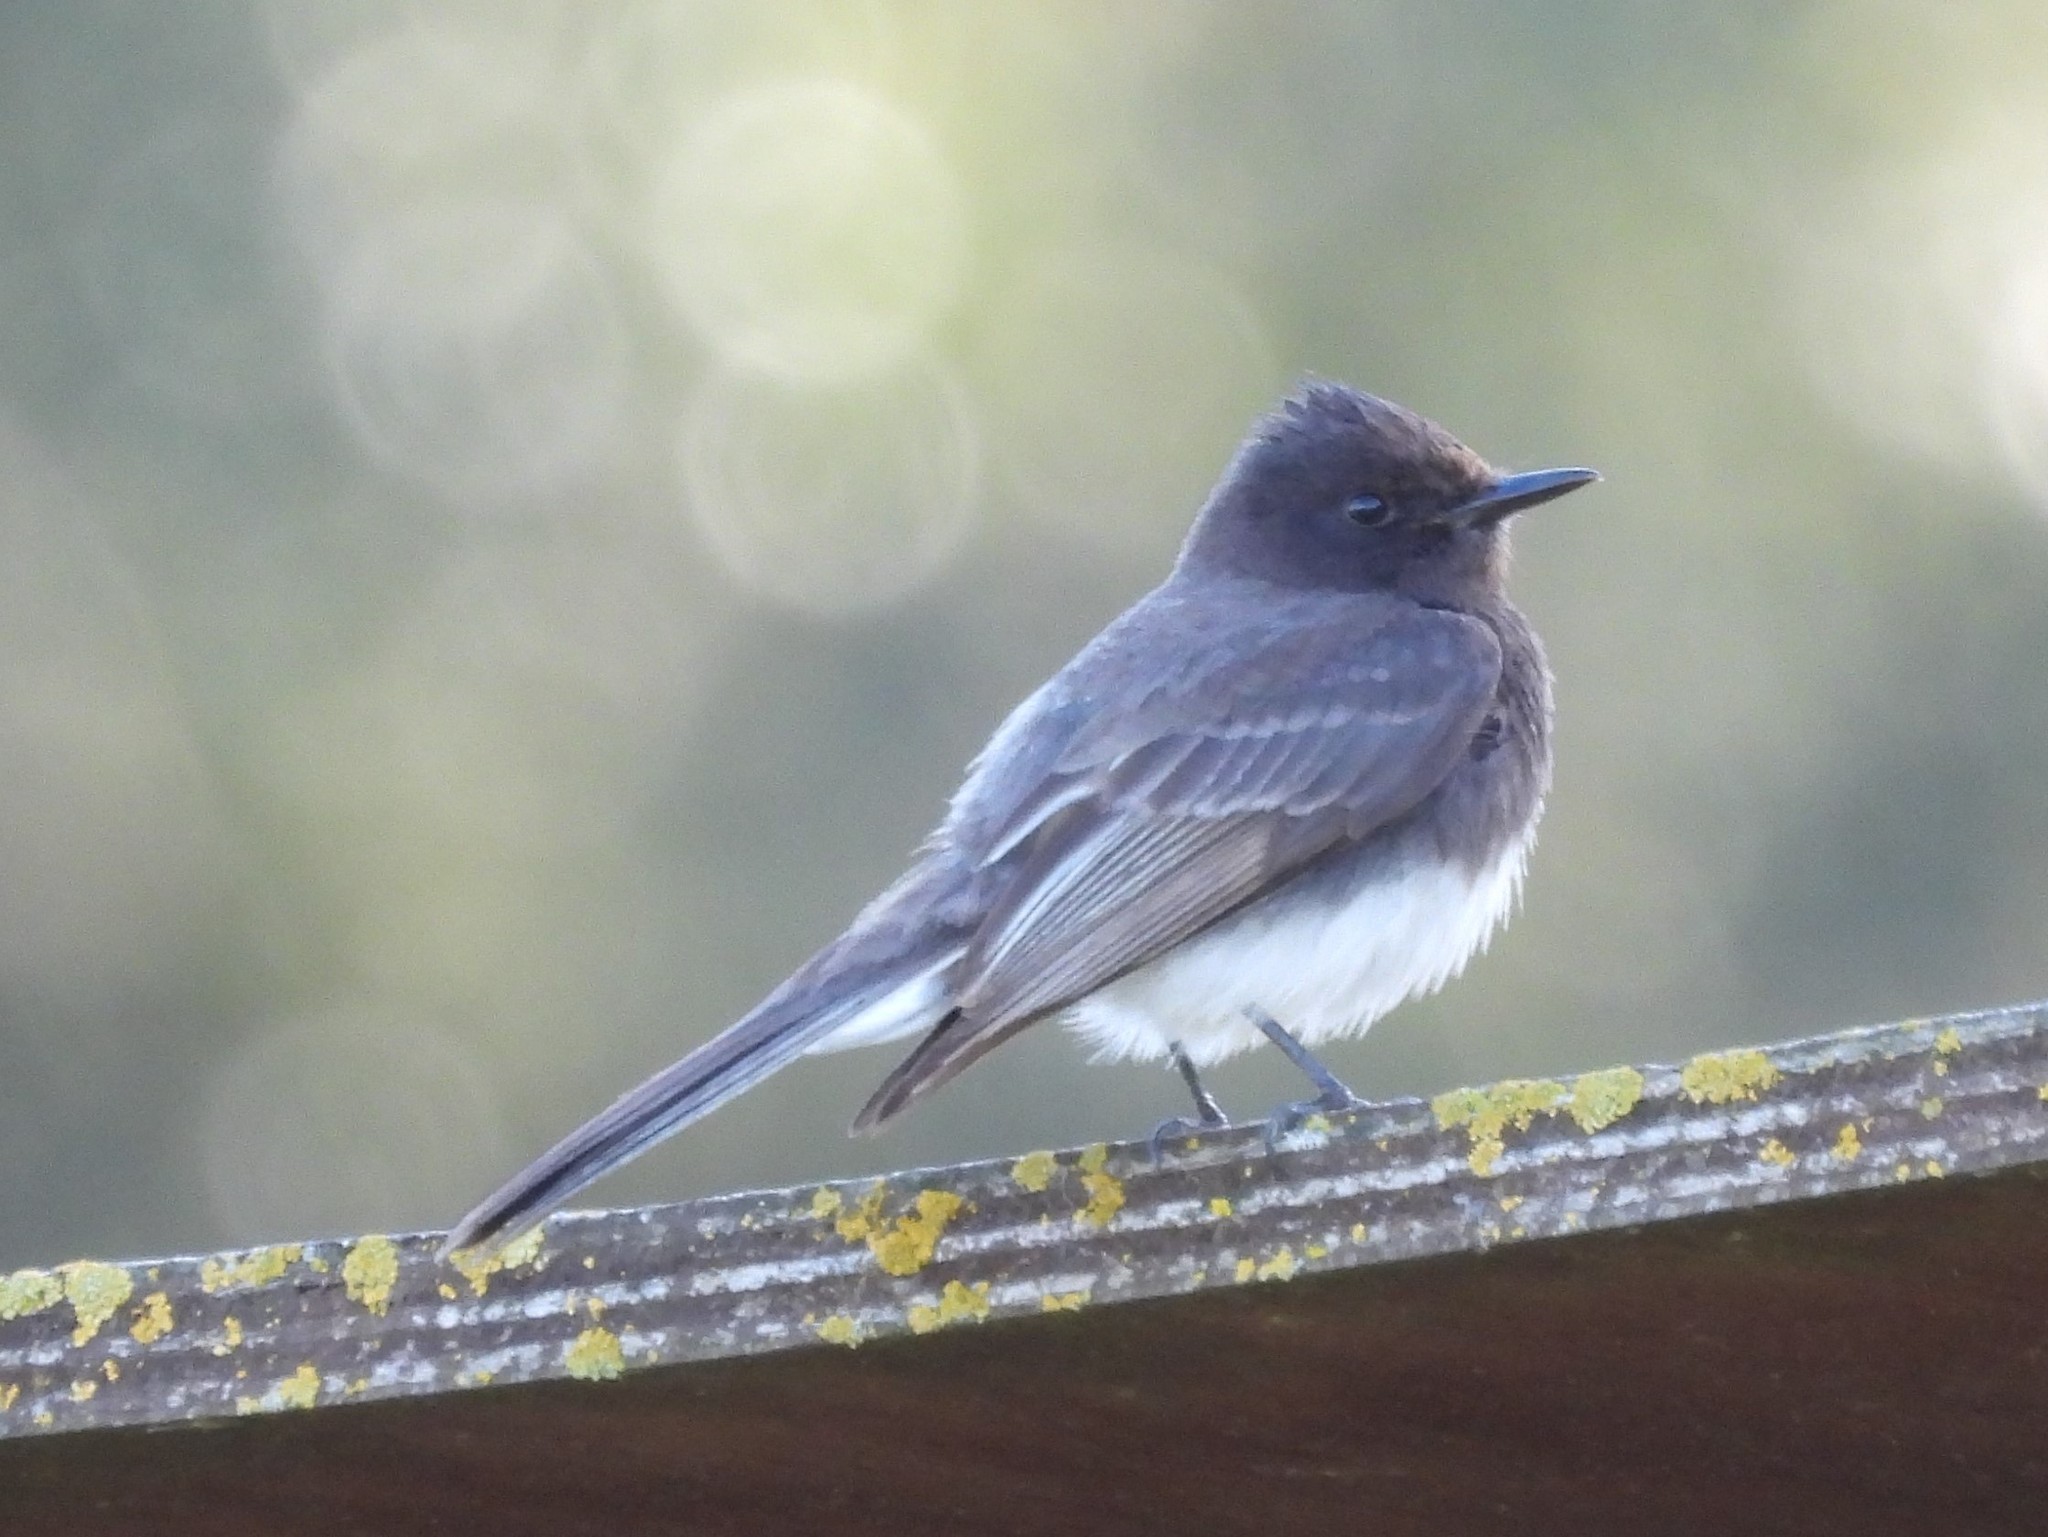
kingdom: Animalia
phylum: Chordata
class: Aves
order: Passeriformes
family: Tyrannidae
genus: Sayornis
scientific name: Sayornis nigricans
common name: Black phoebe
